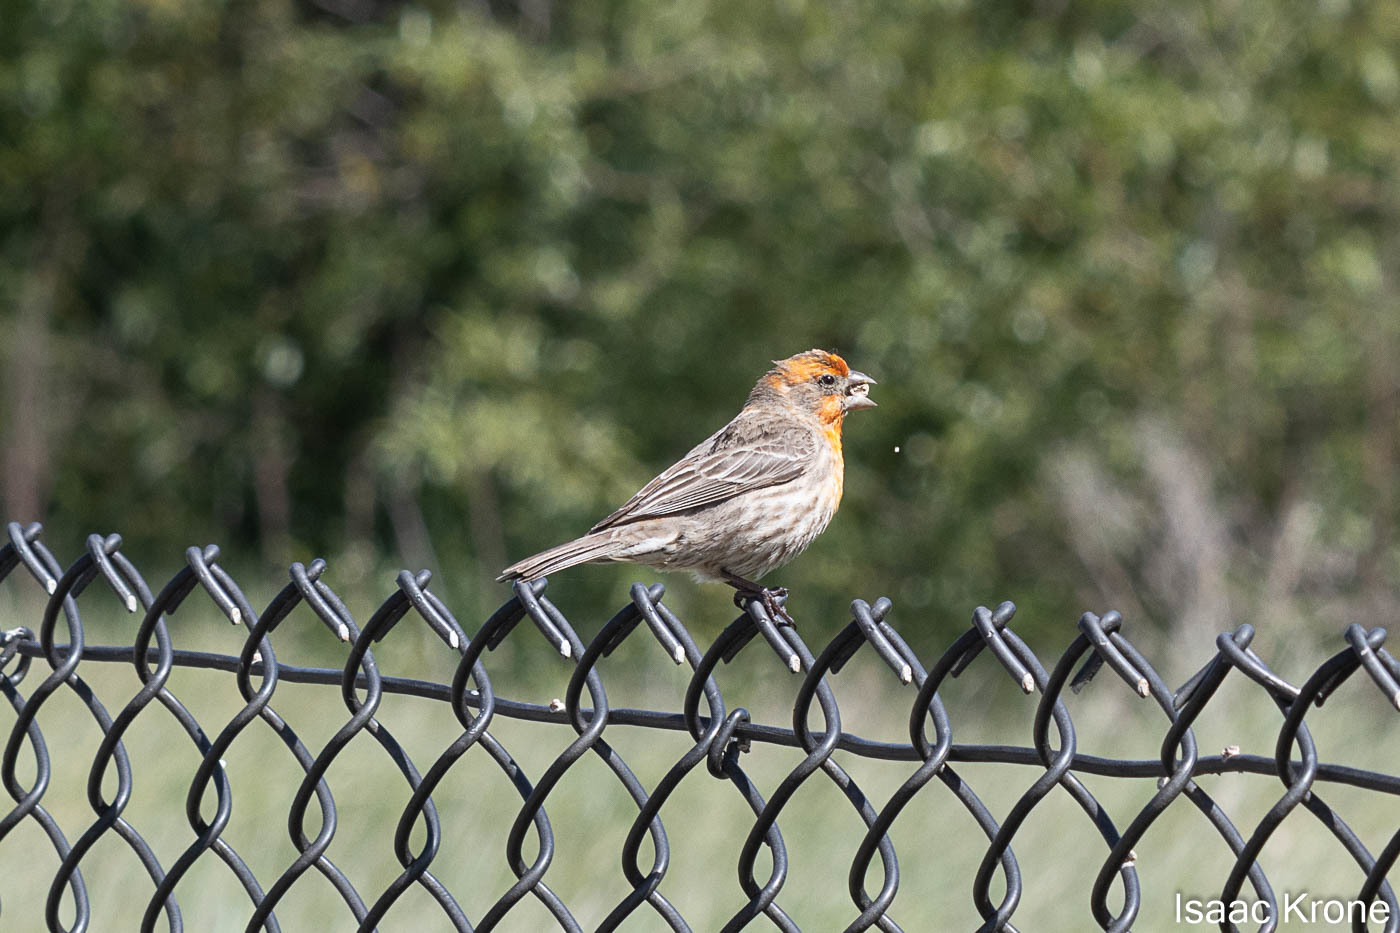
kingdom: Animalia
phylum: Chordata
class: Aves
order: Passeriformes
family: Fringillidae
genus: Haemorhous
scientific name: Haemorhous mexicanus
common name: House finch
